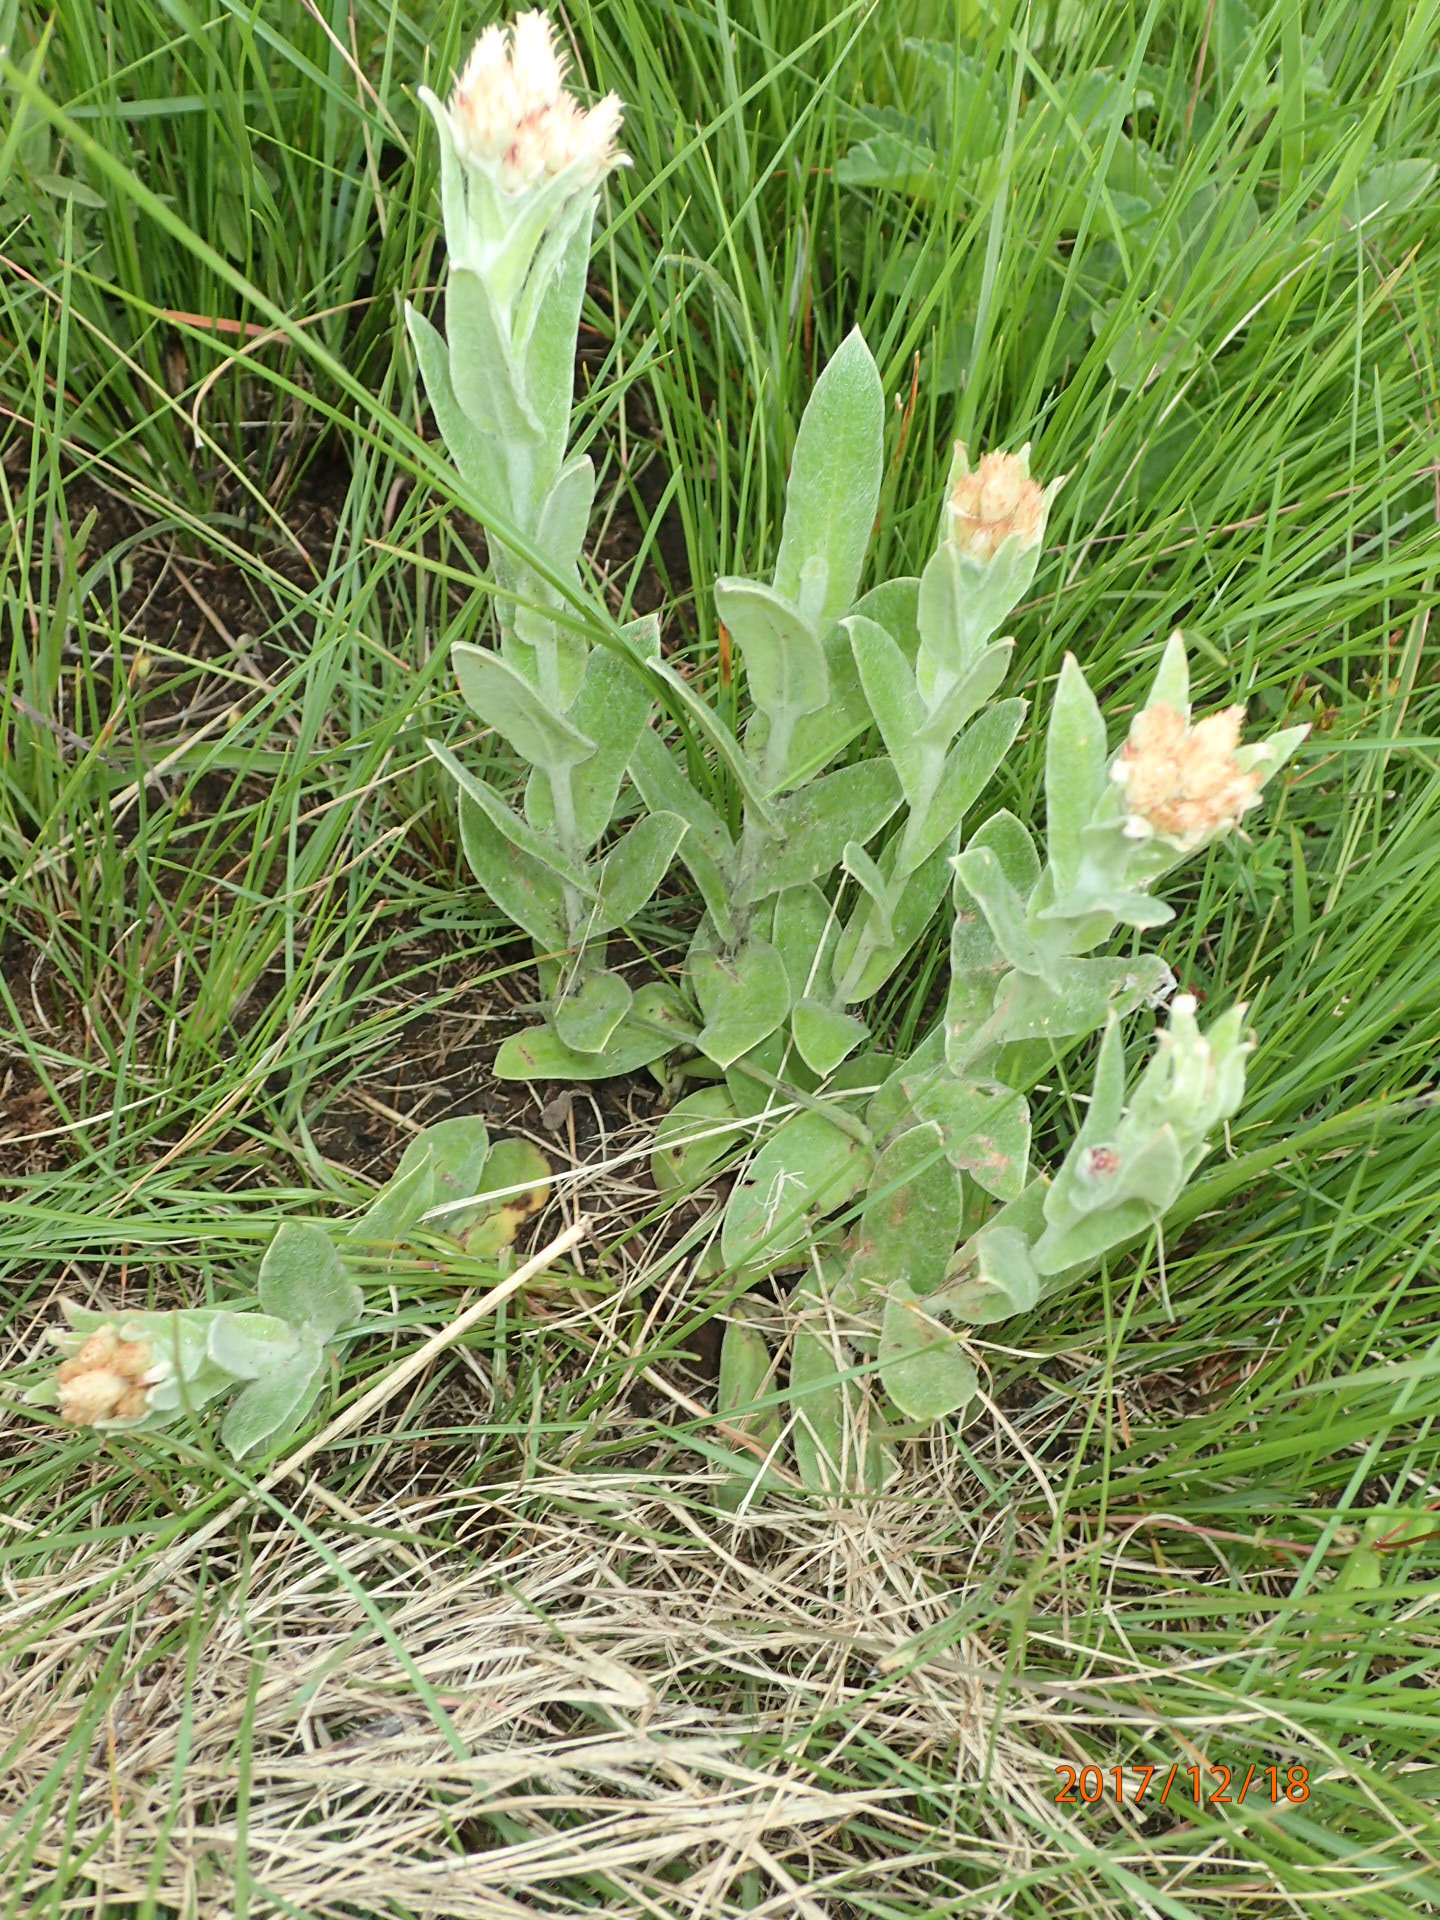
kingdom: Plantae
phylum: Tracheophyta
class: Magnoliopsida
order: Asterales
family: Asteraceae
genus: Helichrysum
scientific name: Helichrysum appendiculatum
